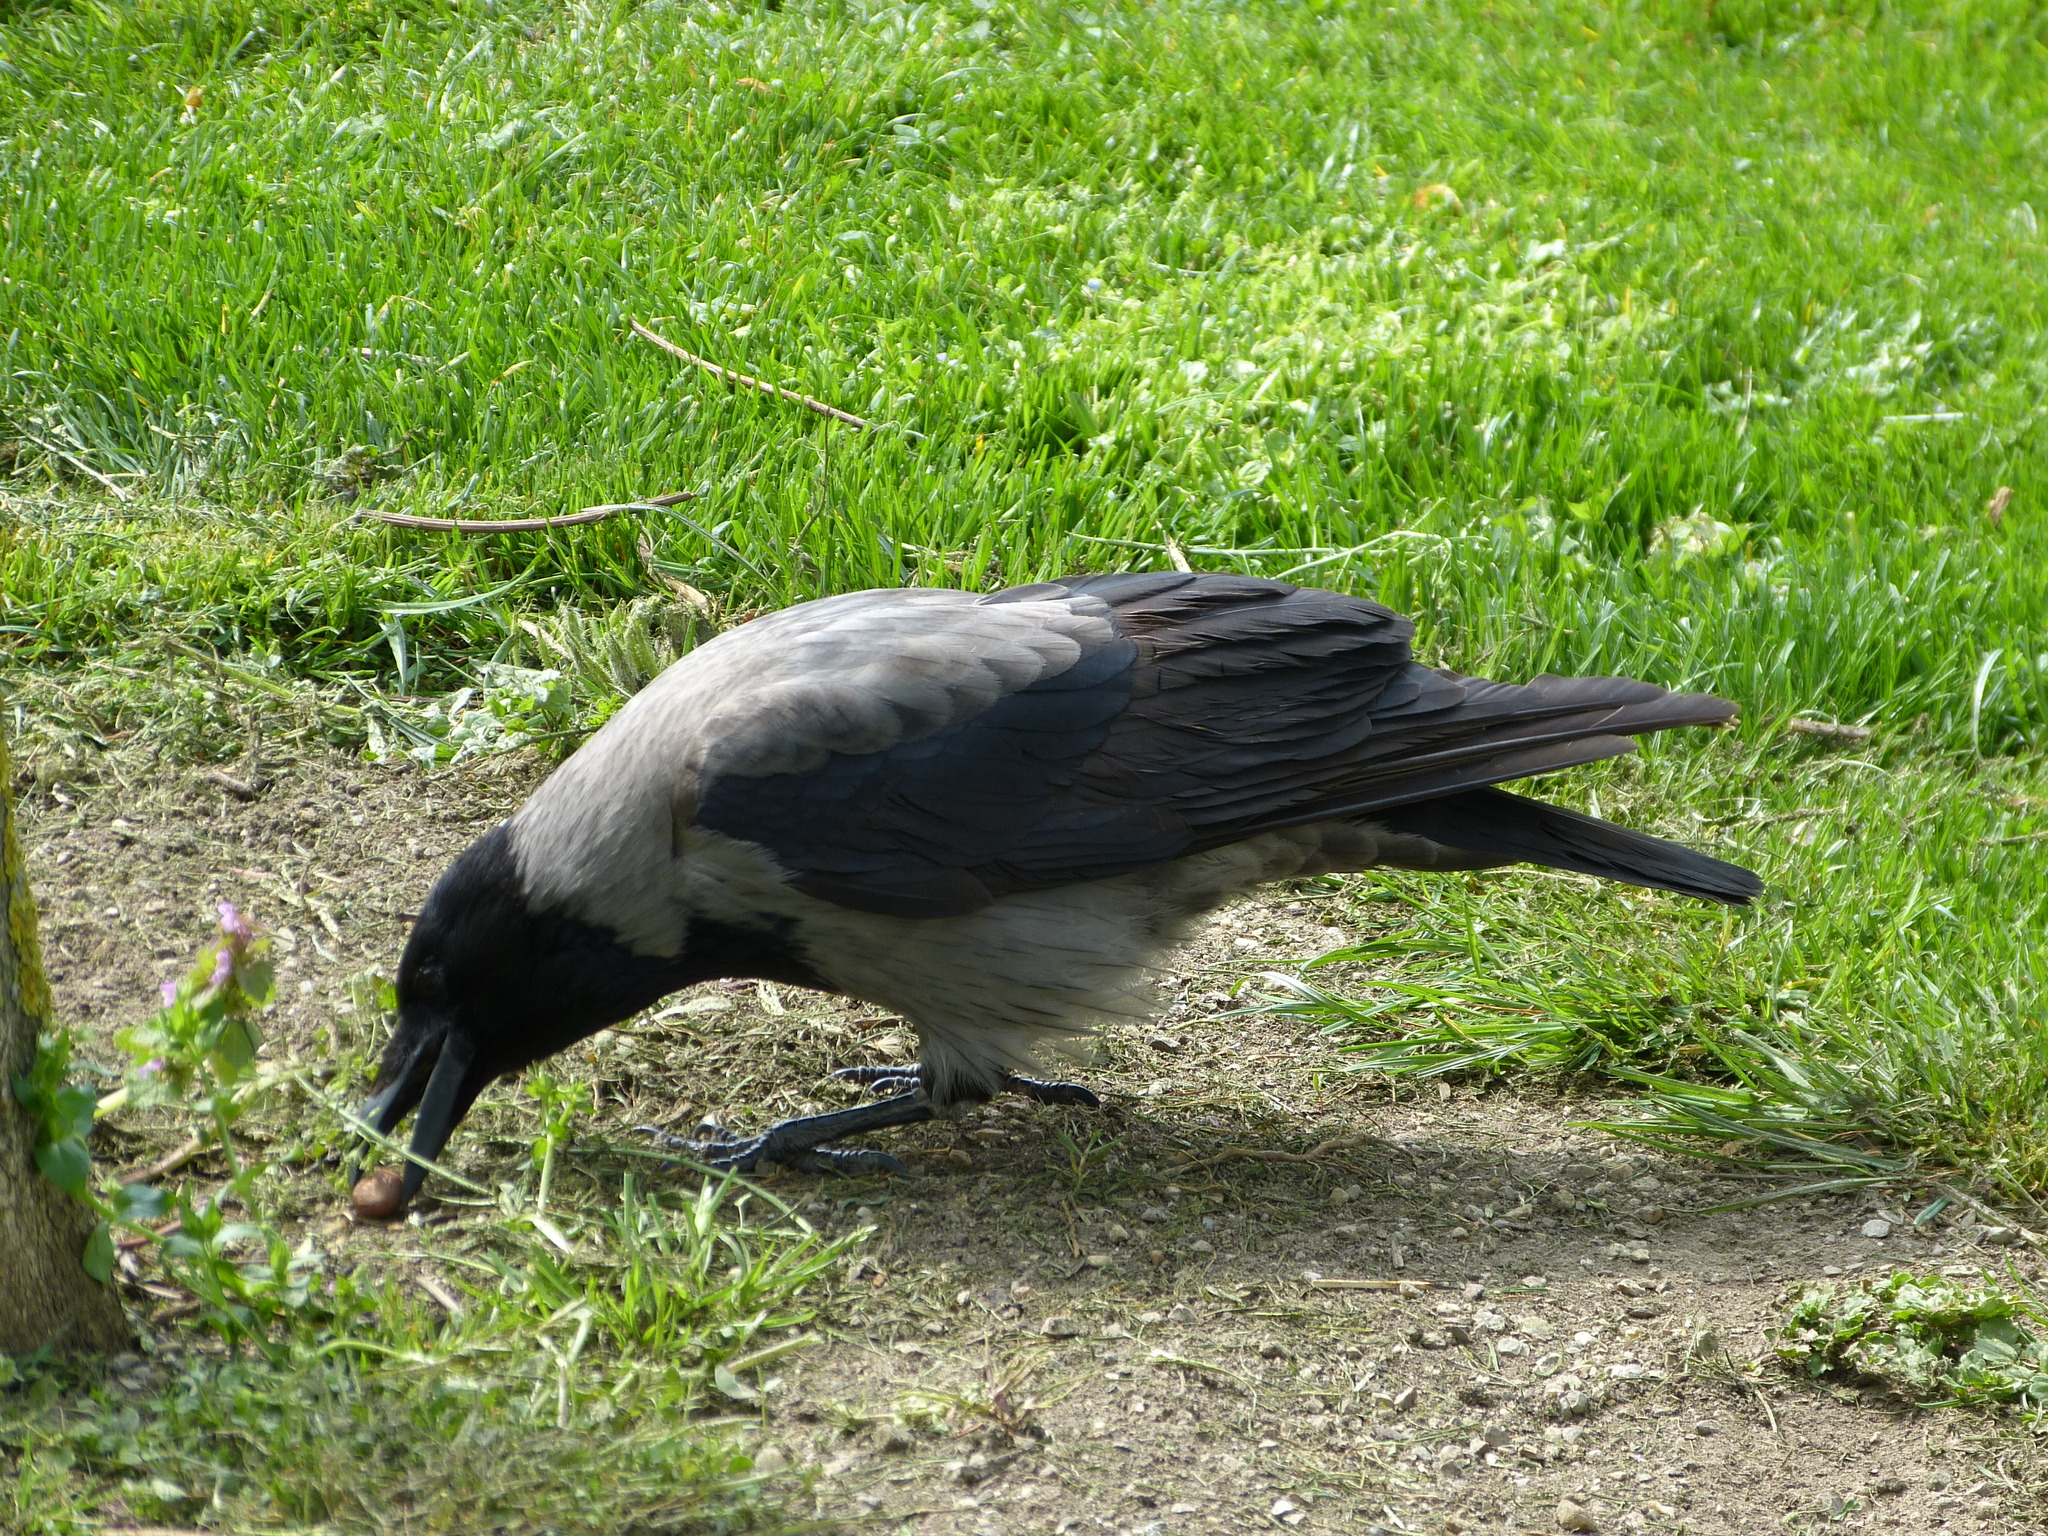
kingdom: Animalia
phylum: Chordata
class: Aves
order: Passeriformes
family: Corvidae
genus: Corvus
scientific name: Corvus cornix
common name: Hooded crow
